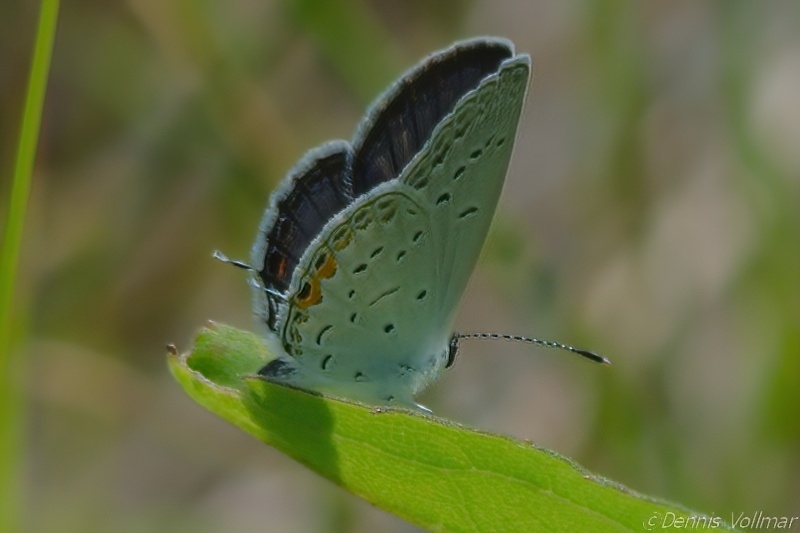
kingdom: Animalia
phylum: Arthropoda
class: Insecta
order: Lepidoptera
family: Lycaenidae
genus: Elkalyce
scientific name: Elkalyce comyntas
